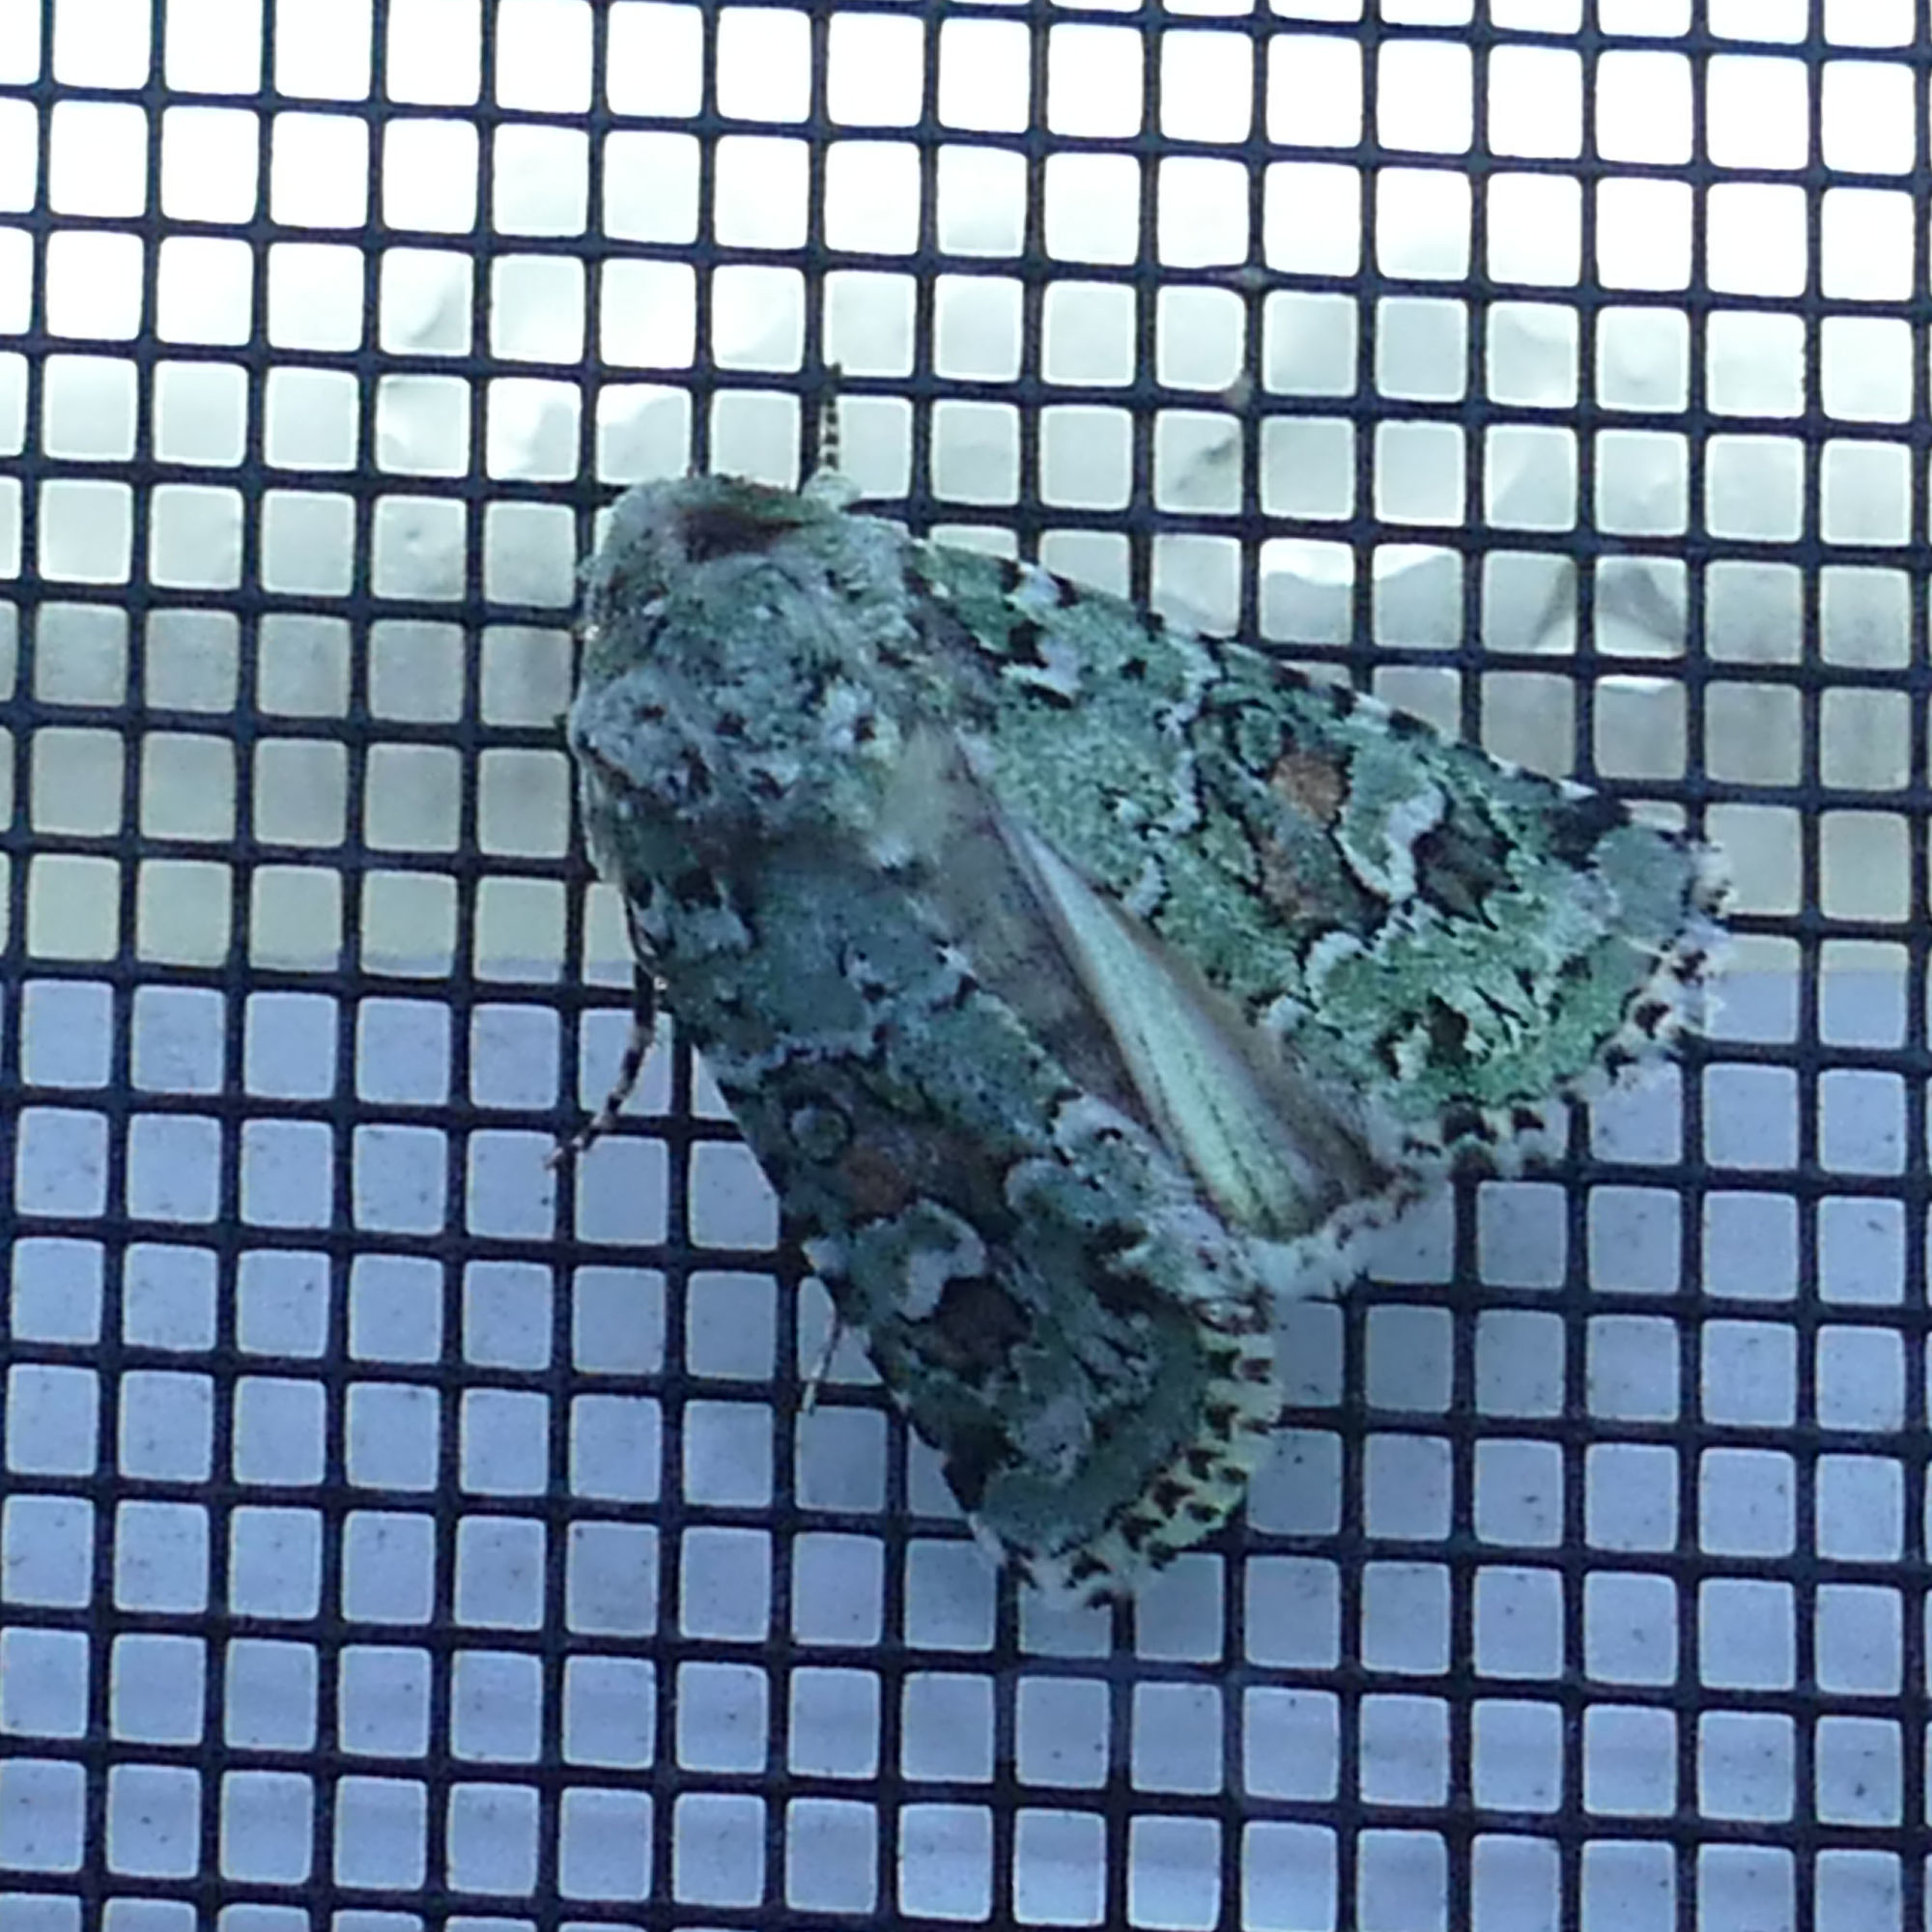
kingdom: Animalia
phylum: Arthropoda
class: Insecta
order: Lepidoptera
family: Noctuidae
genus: Lacinipolia
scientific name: Lacinipolia laudabilis
